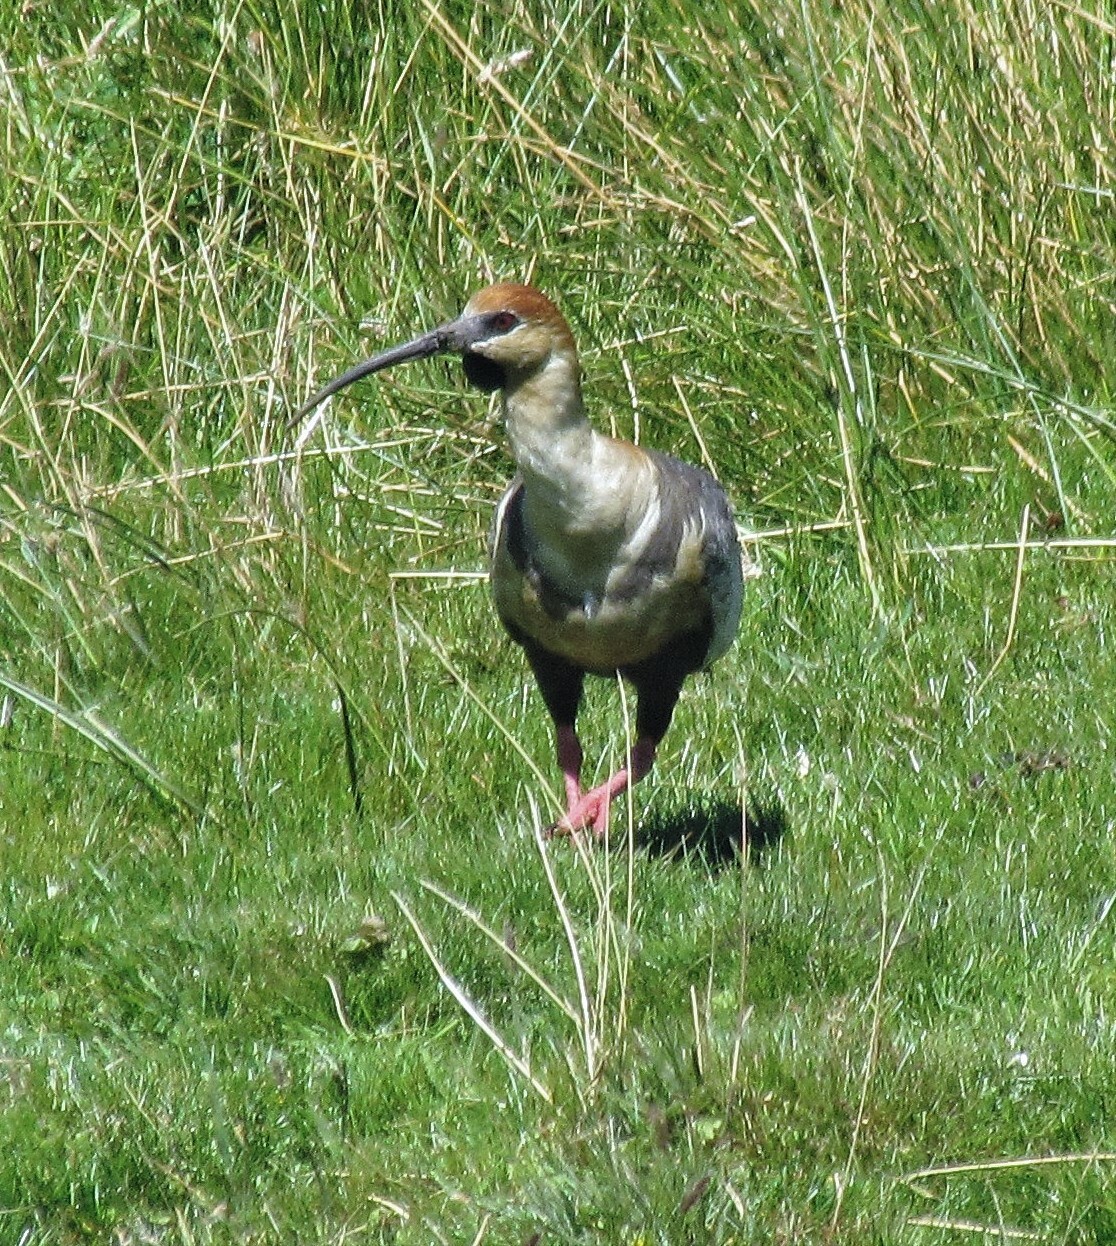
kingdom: Animalia
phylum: Chordata
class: Aves
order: Pelecaniformes
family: Threskiornithidae
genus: Theristicus
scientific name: Theristicus melanopis
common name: Black-faced ibis
